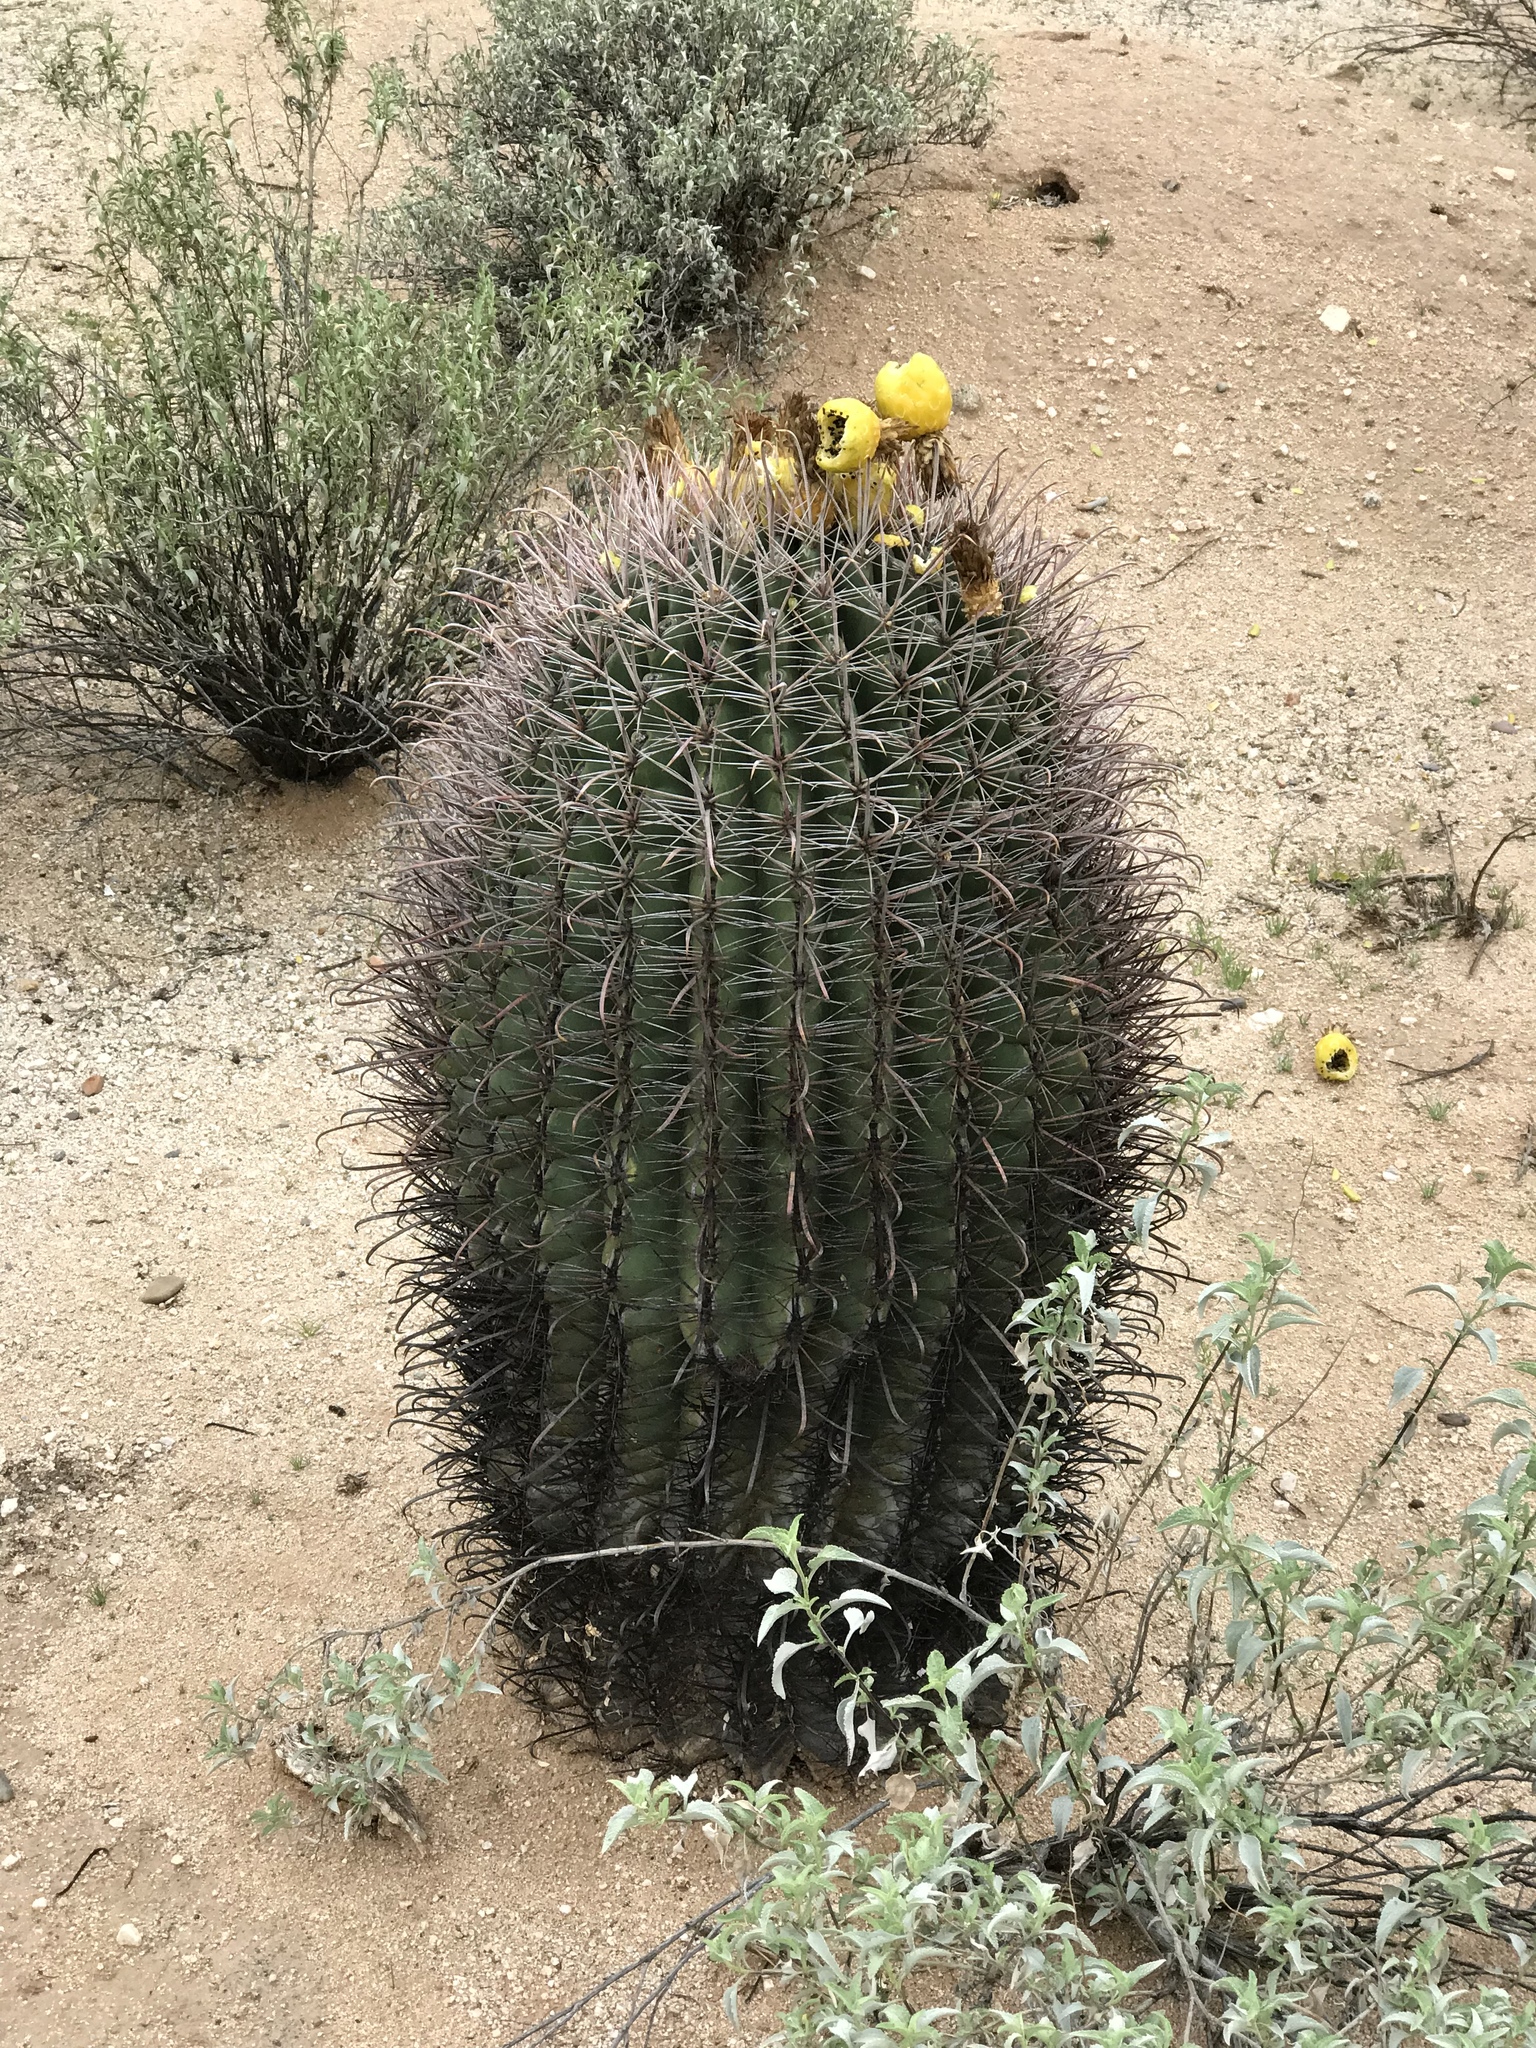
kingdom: Plantae
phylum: Tracheophyta
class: Magnoliopsida
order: Caryophyllales
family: Cactaceae
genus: Ferocactus
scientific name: Ferocactus wislizeni
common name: Candy barrel cactus
